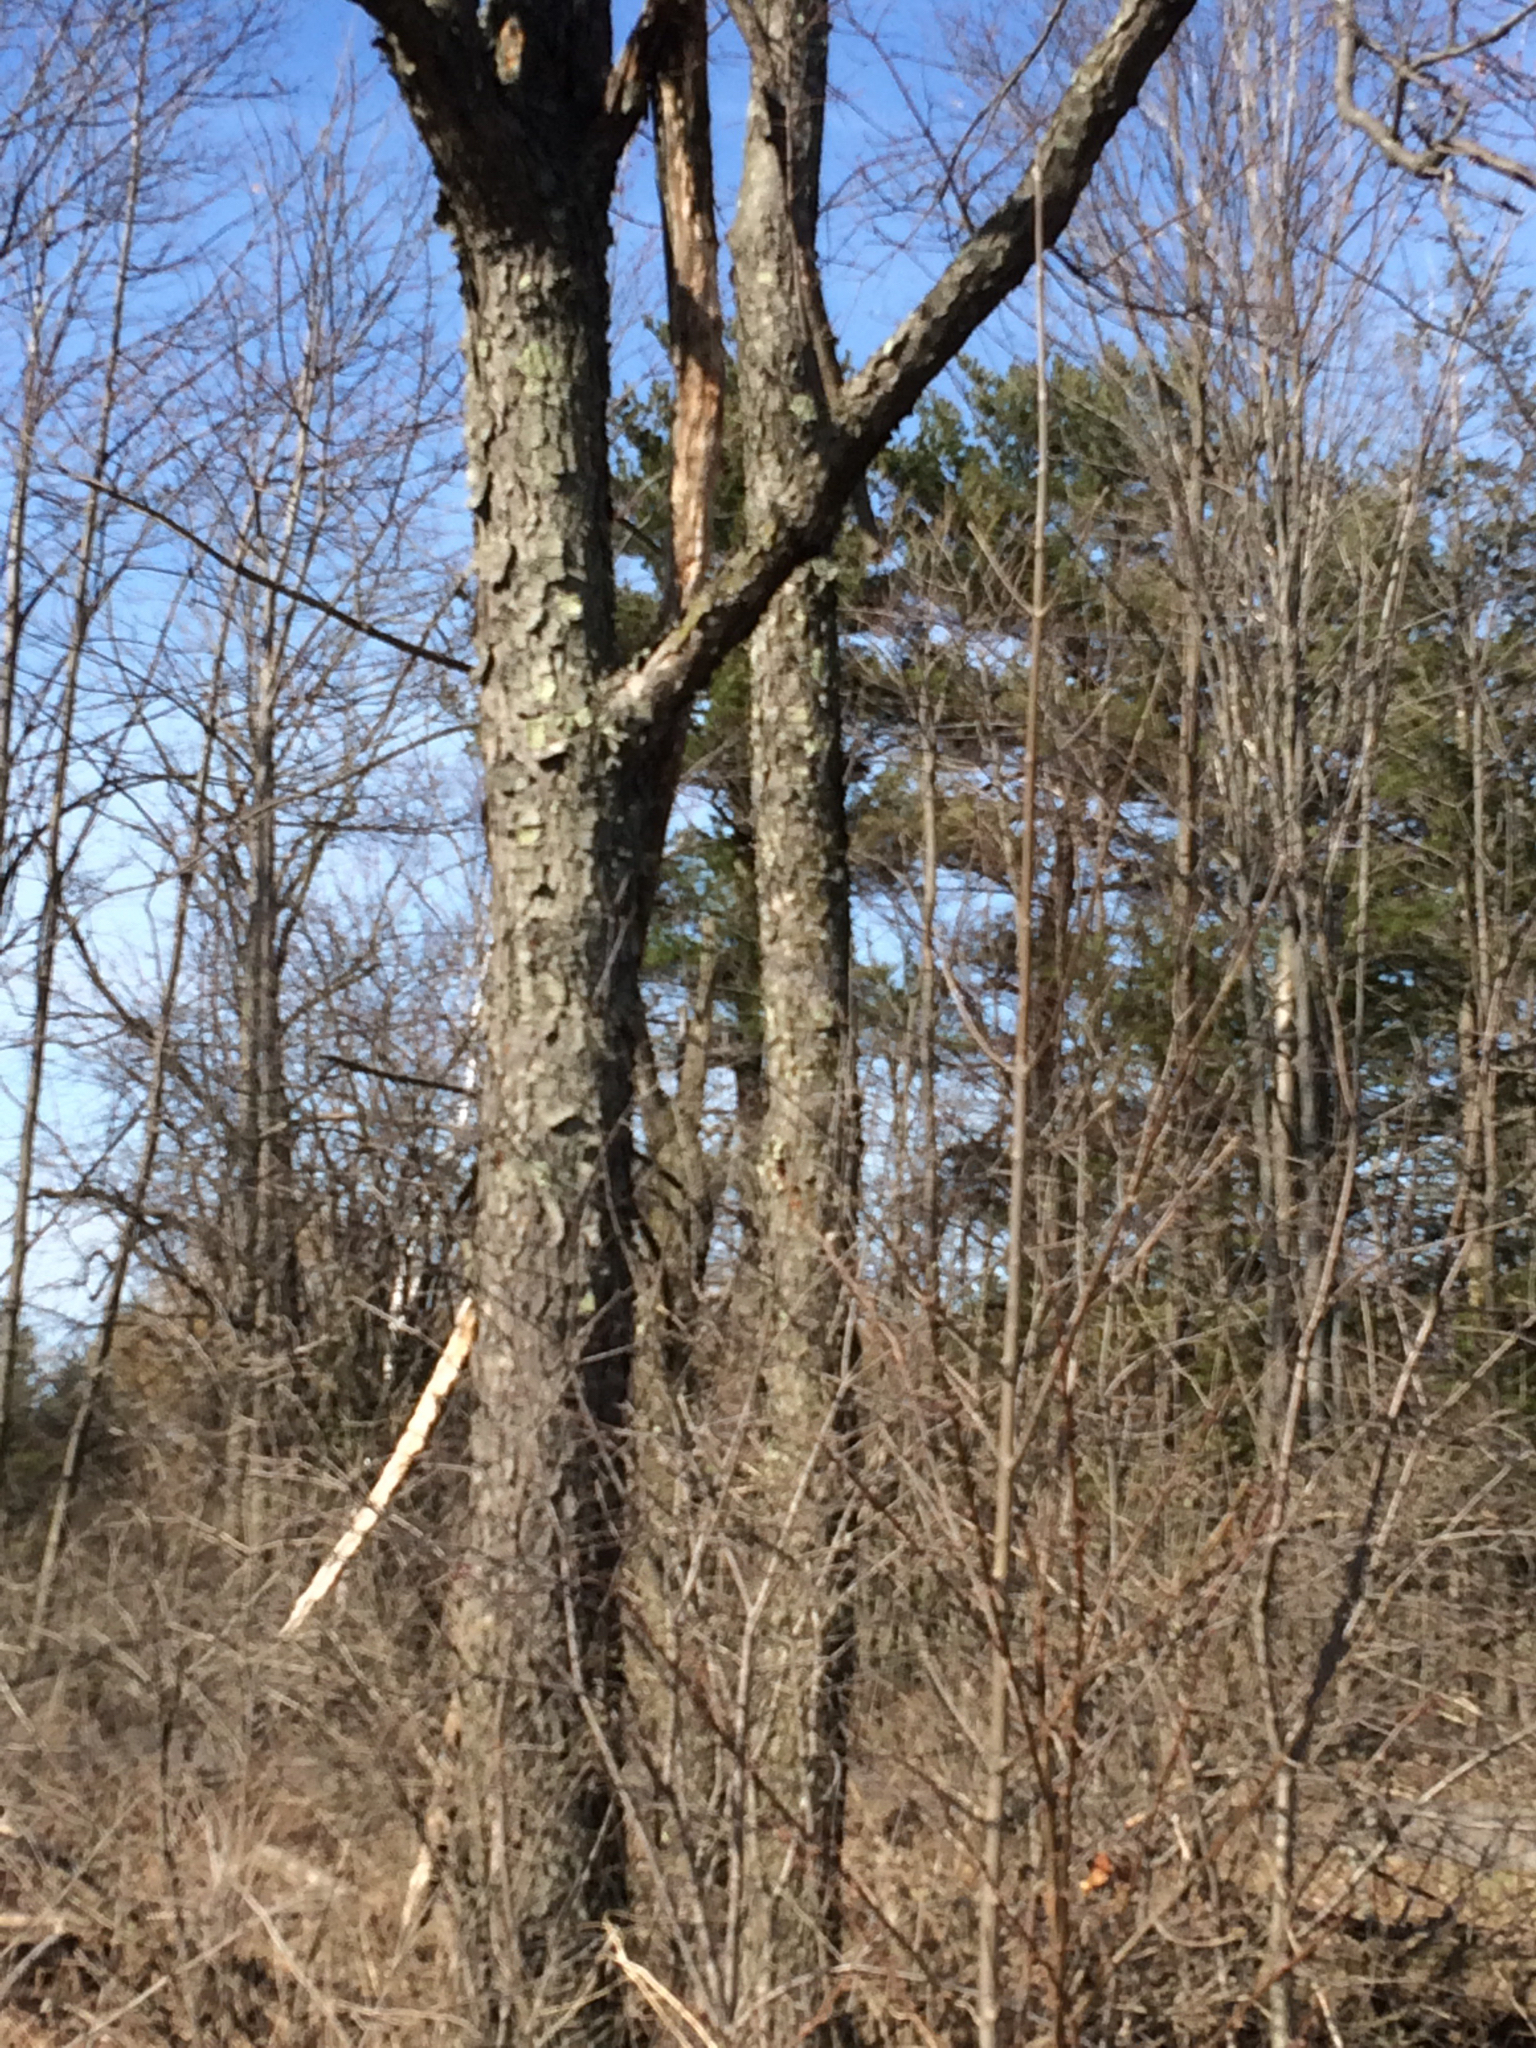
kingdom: Plantae
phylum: Tracheophyta
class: Magnoliopsida
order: Rosales
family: Rosaceae
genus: Prunus
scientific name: Prunus serotina
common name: Black cherry
